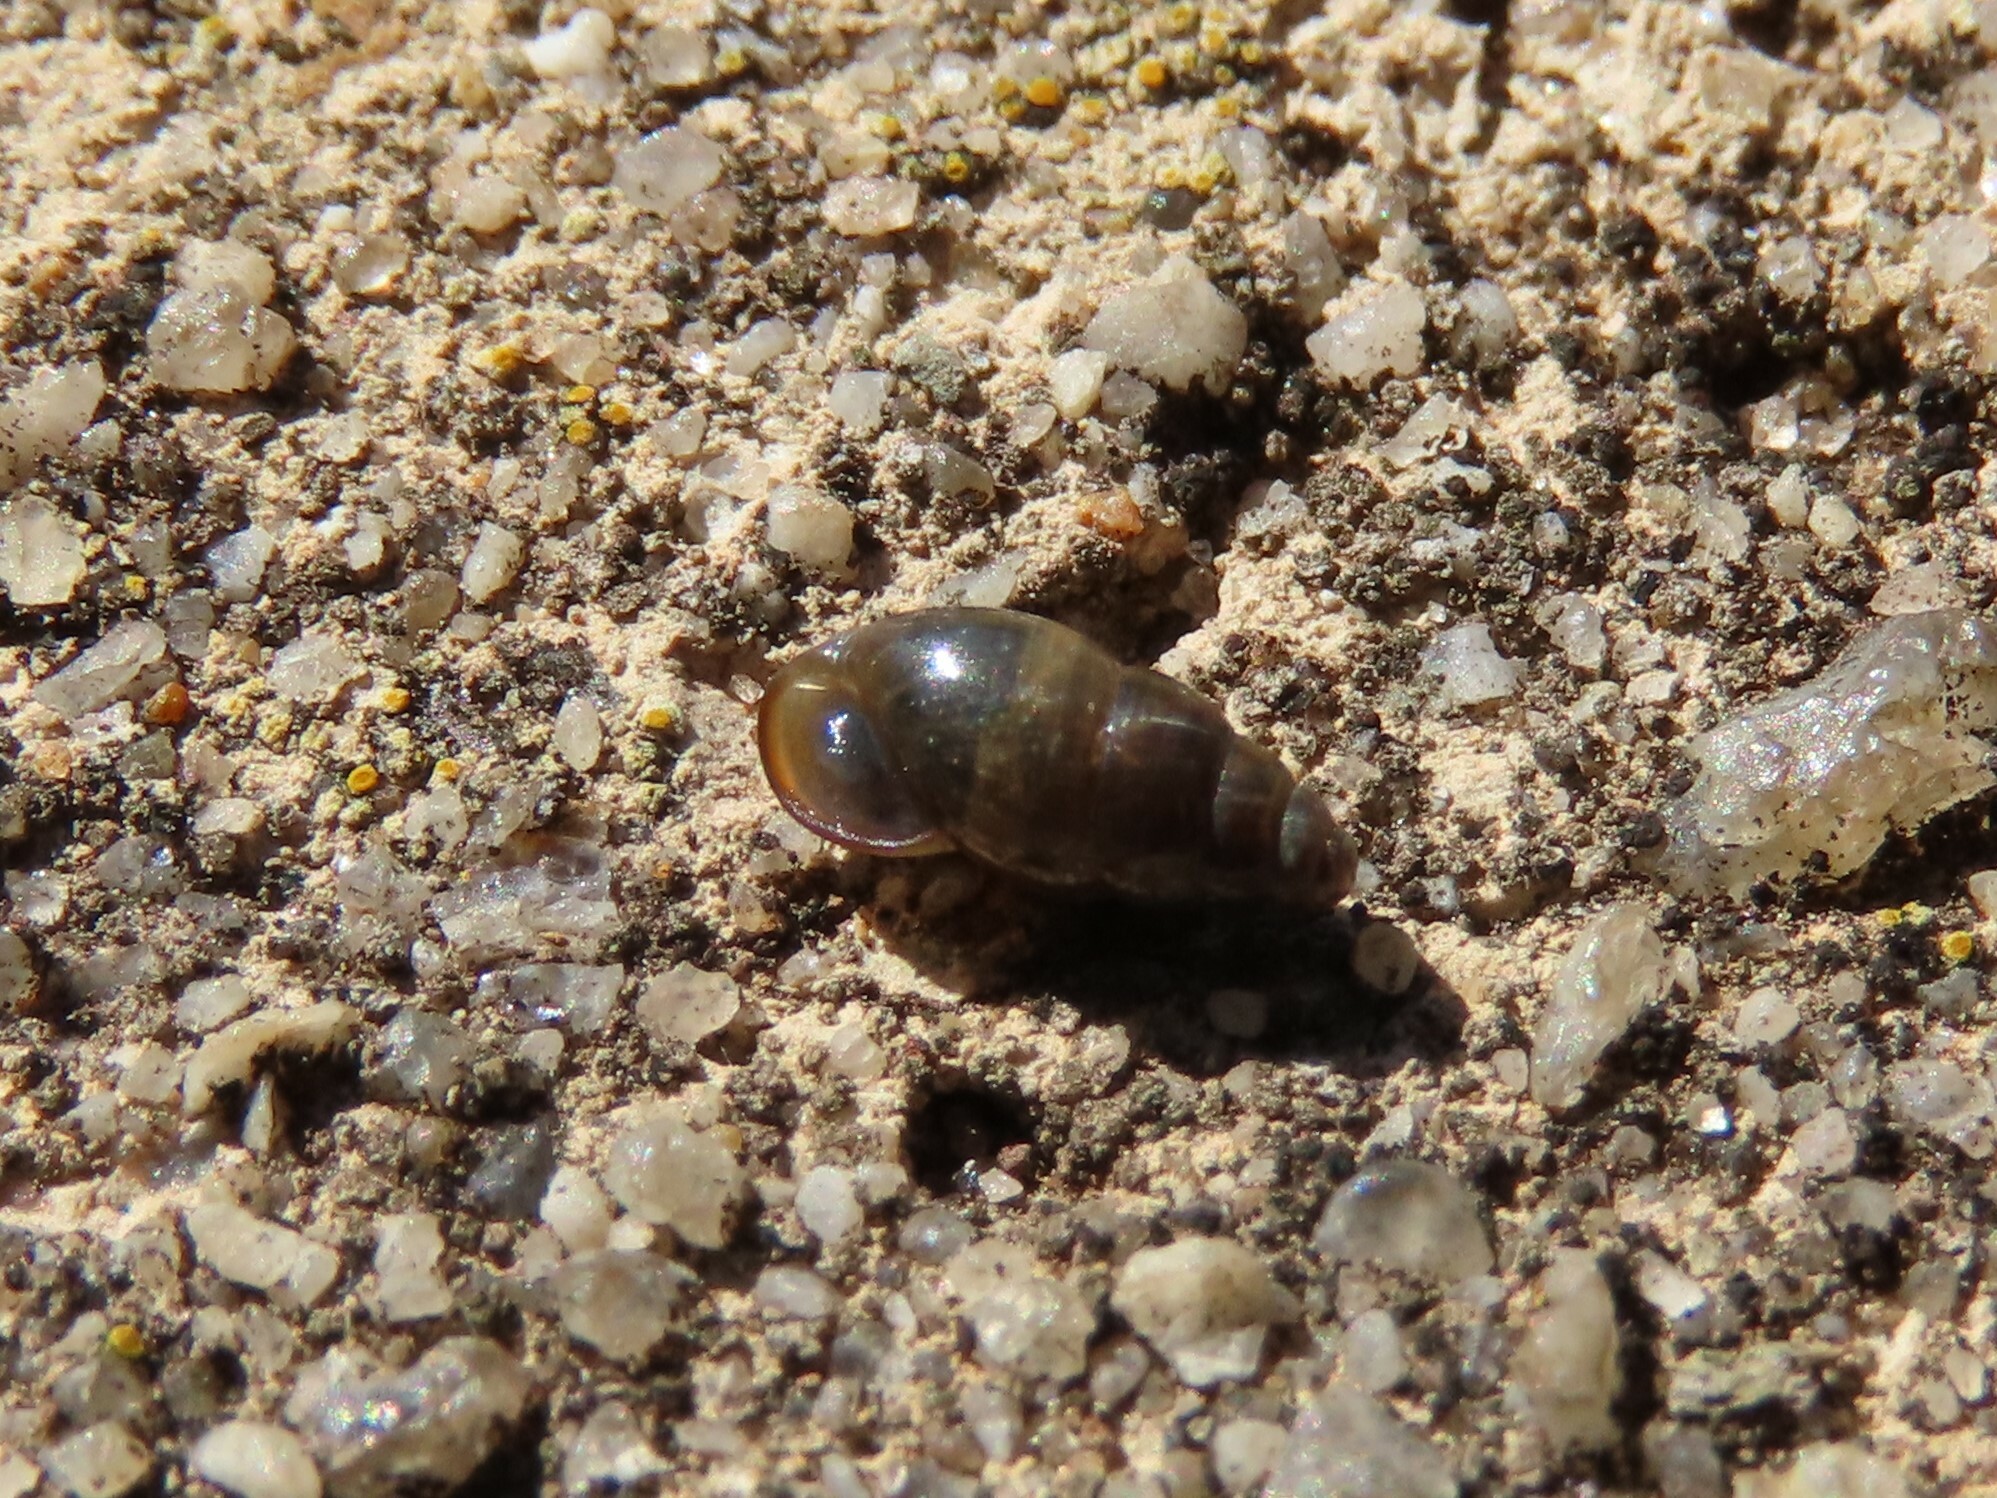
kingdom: Animalia
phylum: Mollusca
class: Gastropoda
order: Stylommatophora
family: Cochlicopidae
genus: Cochlicopa
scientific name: Cochlicopa lubrica
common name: Glossy pillar snail
